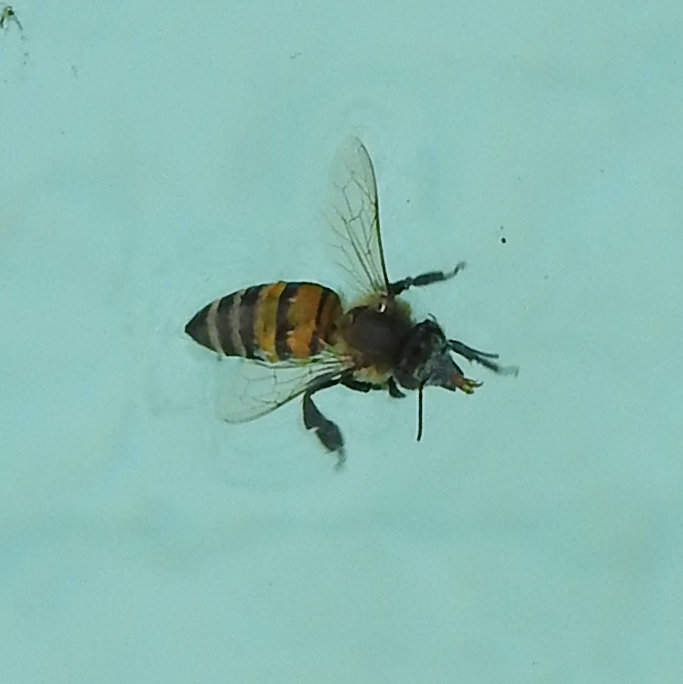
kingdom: Animalia
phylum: Arthropoda
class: Insecta
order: Hymenoptera
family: Apidae
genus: Apis
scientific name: Apis mellifera
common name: Honey bee
